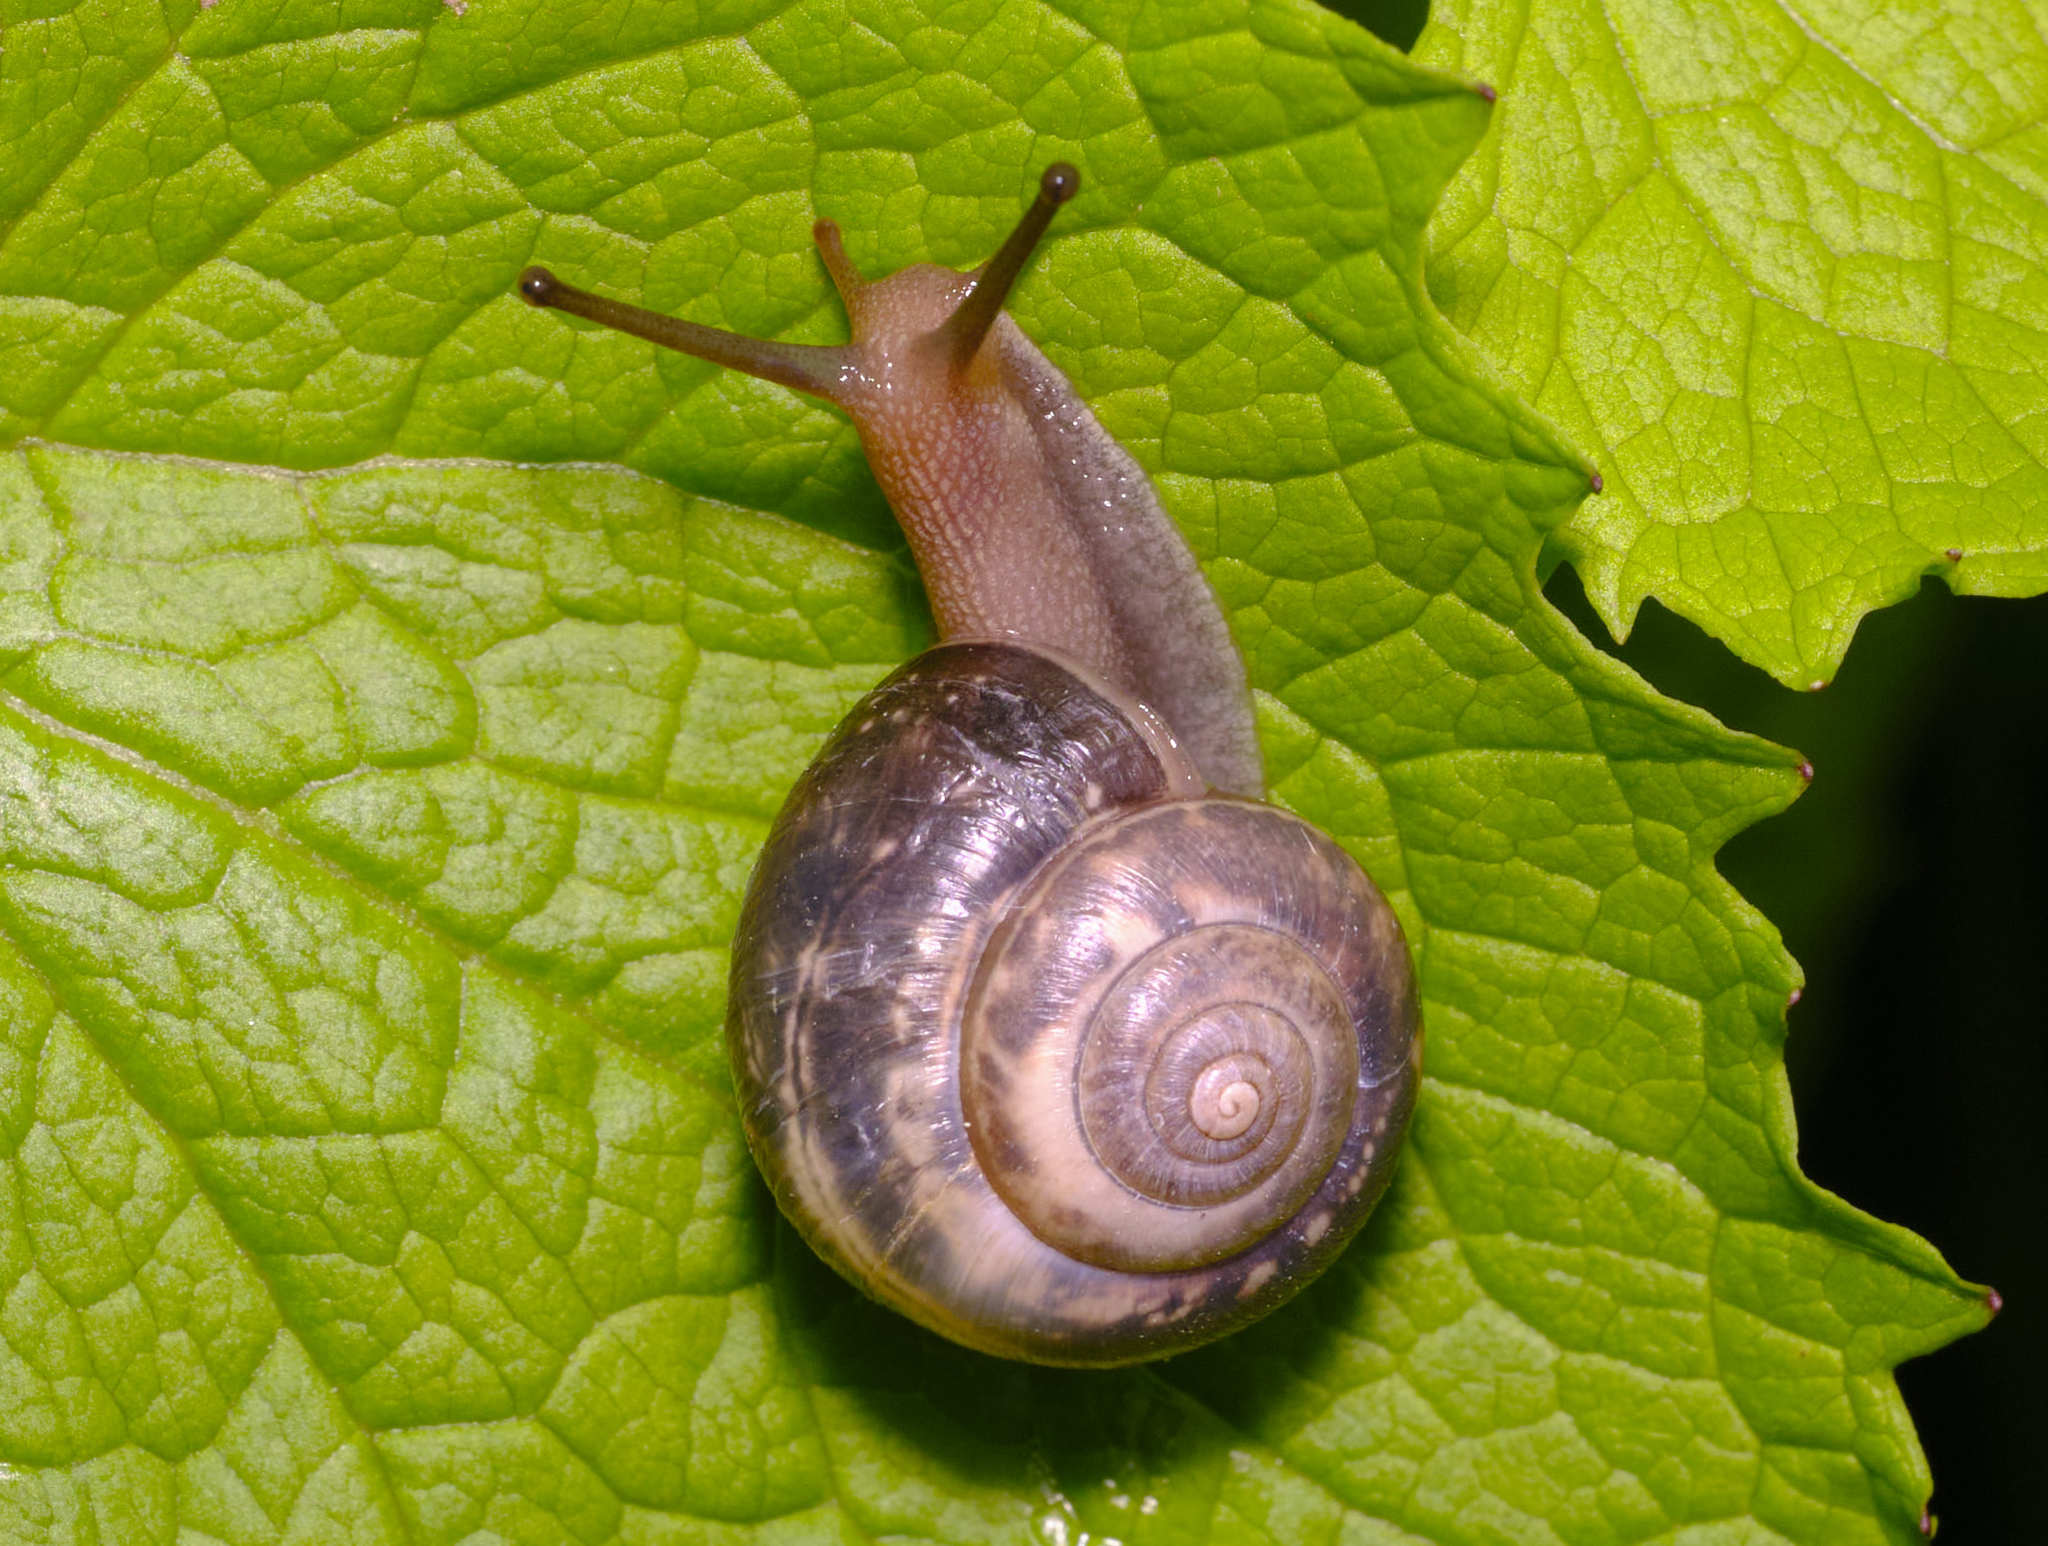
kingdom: Animalia
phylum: Mollusca
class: Gastropoda
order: Stylommatophora
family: Hygromiidae
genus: Monacha
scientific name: Monacha cantiana
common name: Kentish snail
